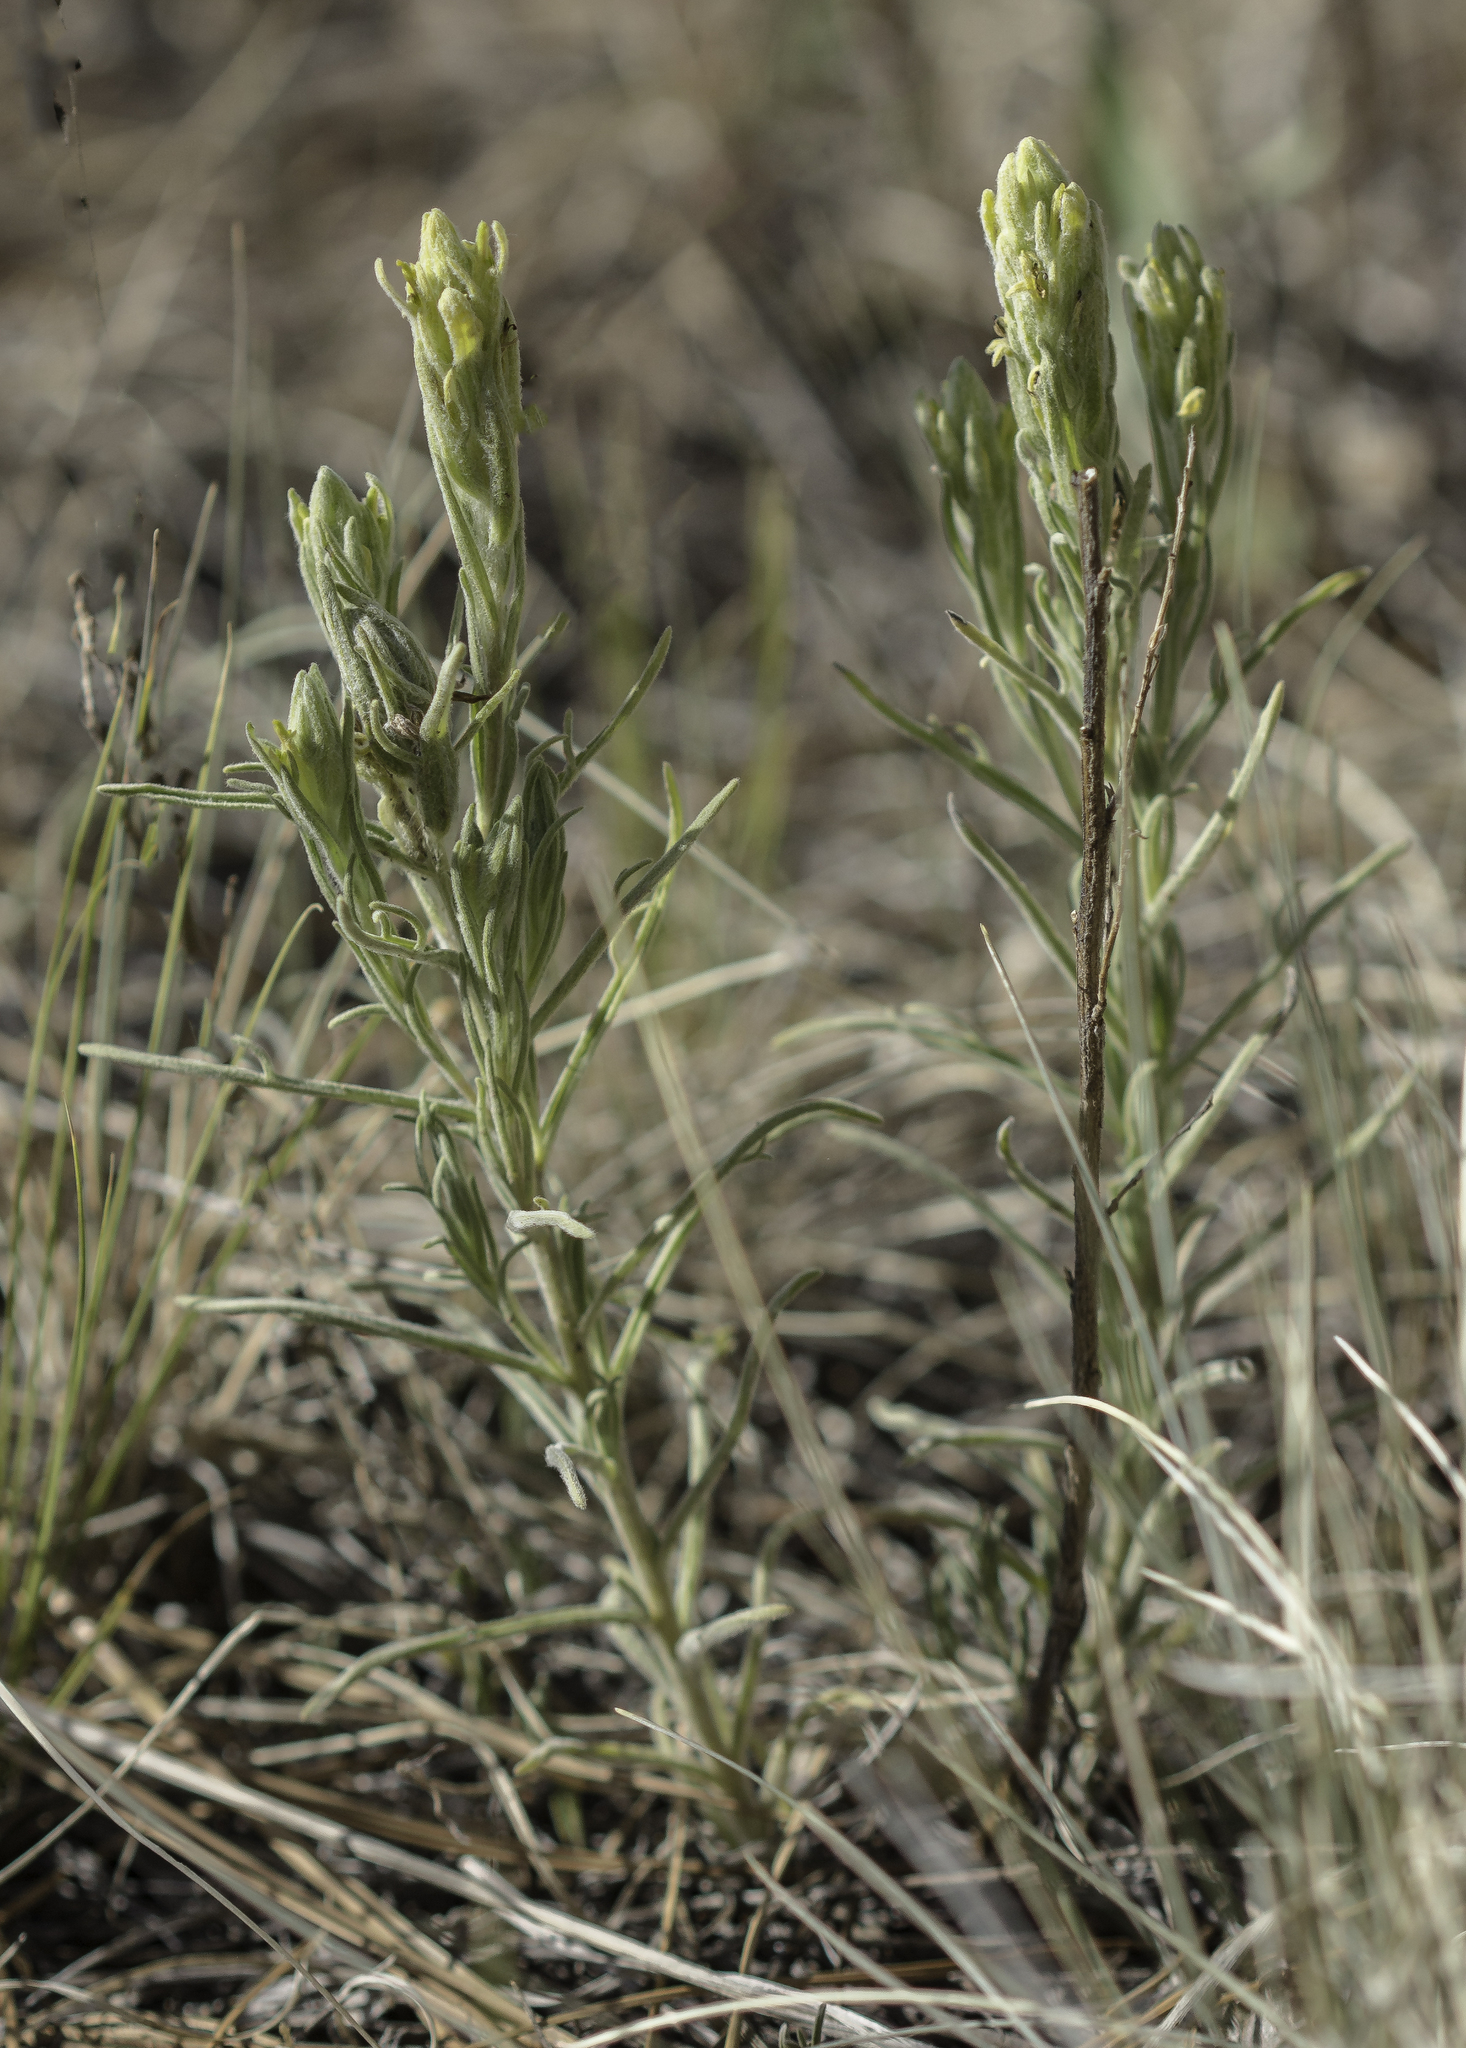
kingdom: Plantae
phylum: Tracheophyta
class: Magnoliopsida
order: Lamiales
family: Orobanchaceae
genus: Castilleja
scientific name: Castilleja lineata
